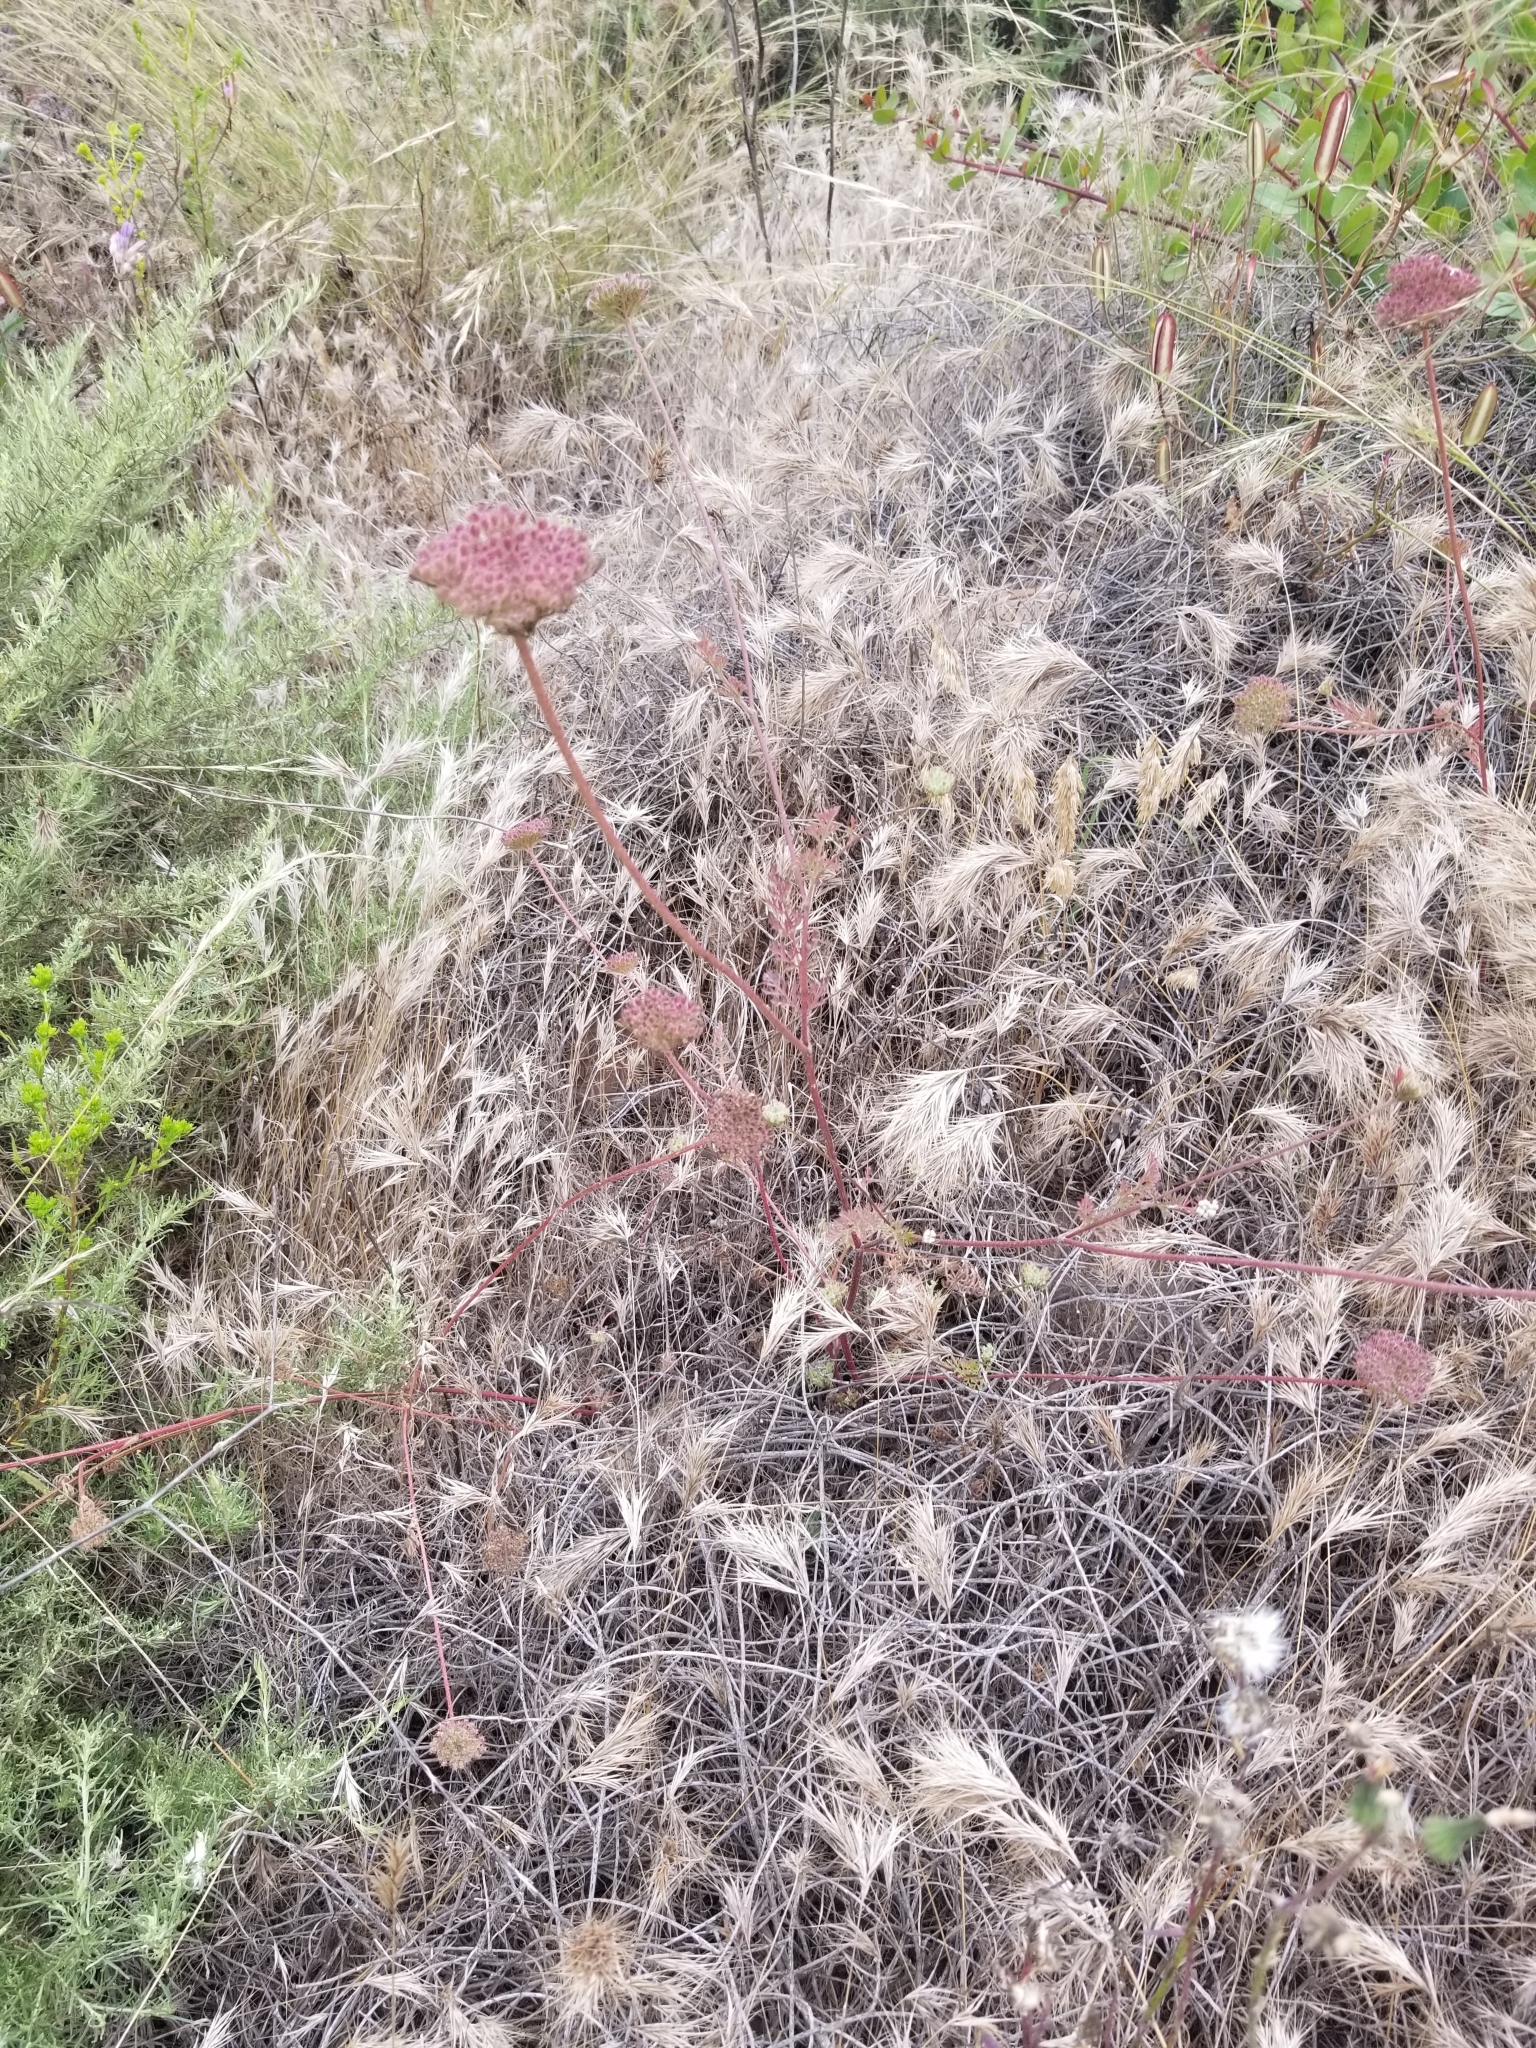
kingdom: Plantae
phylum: Tracheophyta
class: Magnoliopsida
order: Apiales
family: Apiaceae
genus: Daucus
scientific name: Daucus pusillus
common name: Southwest wild carrot
